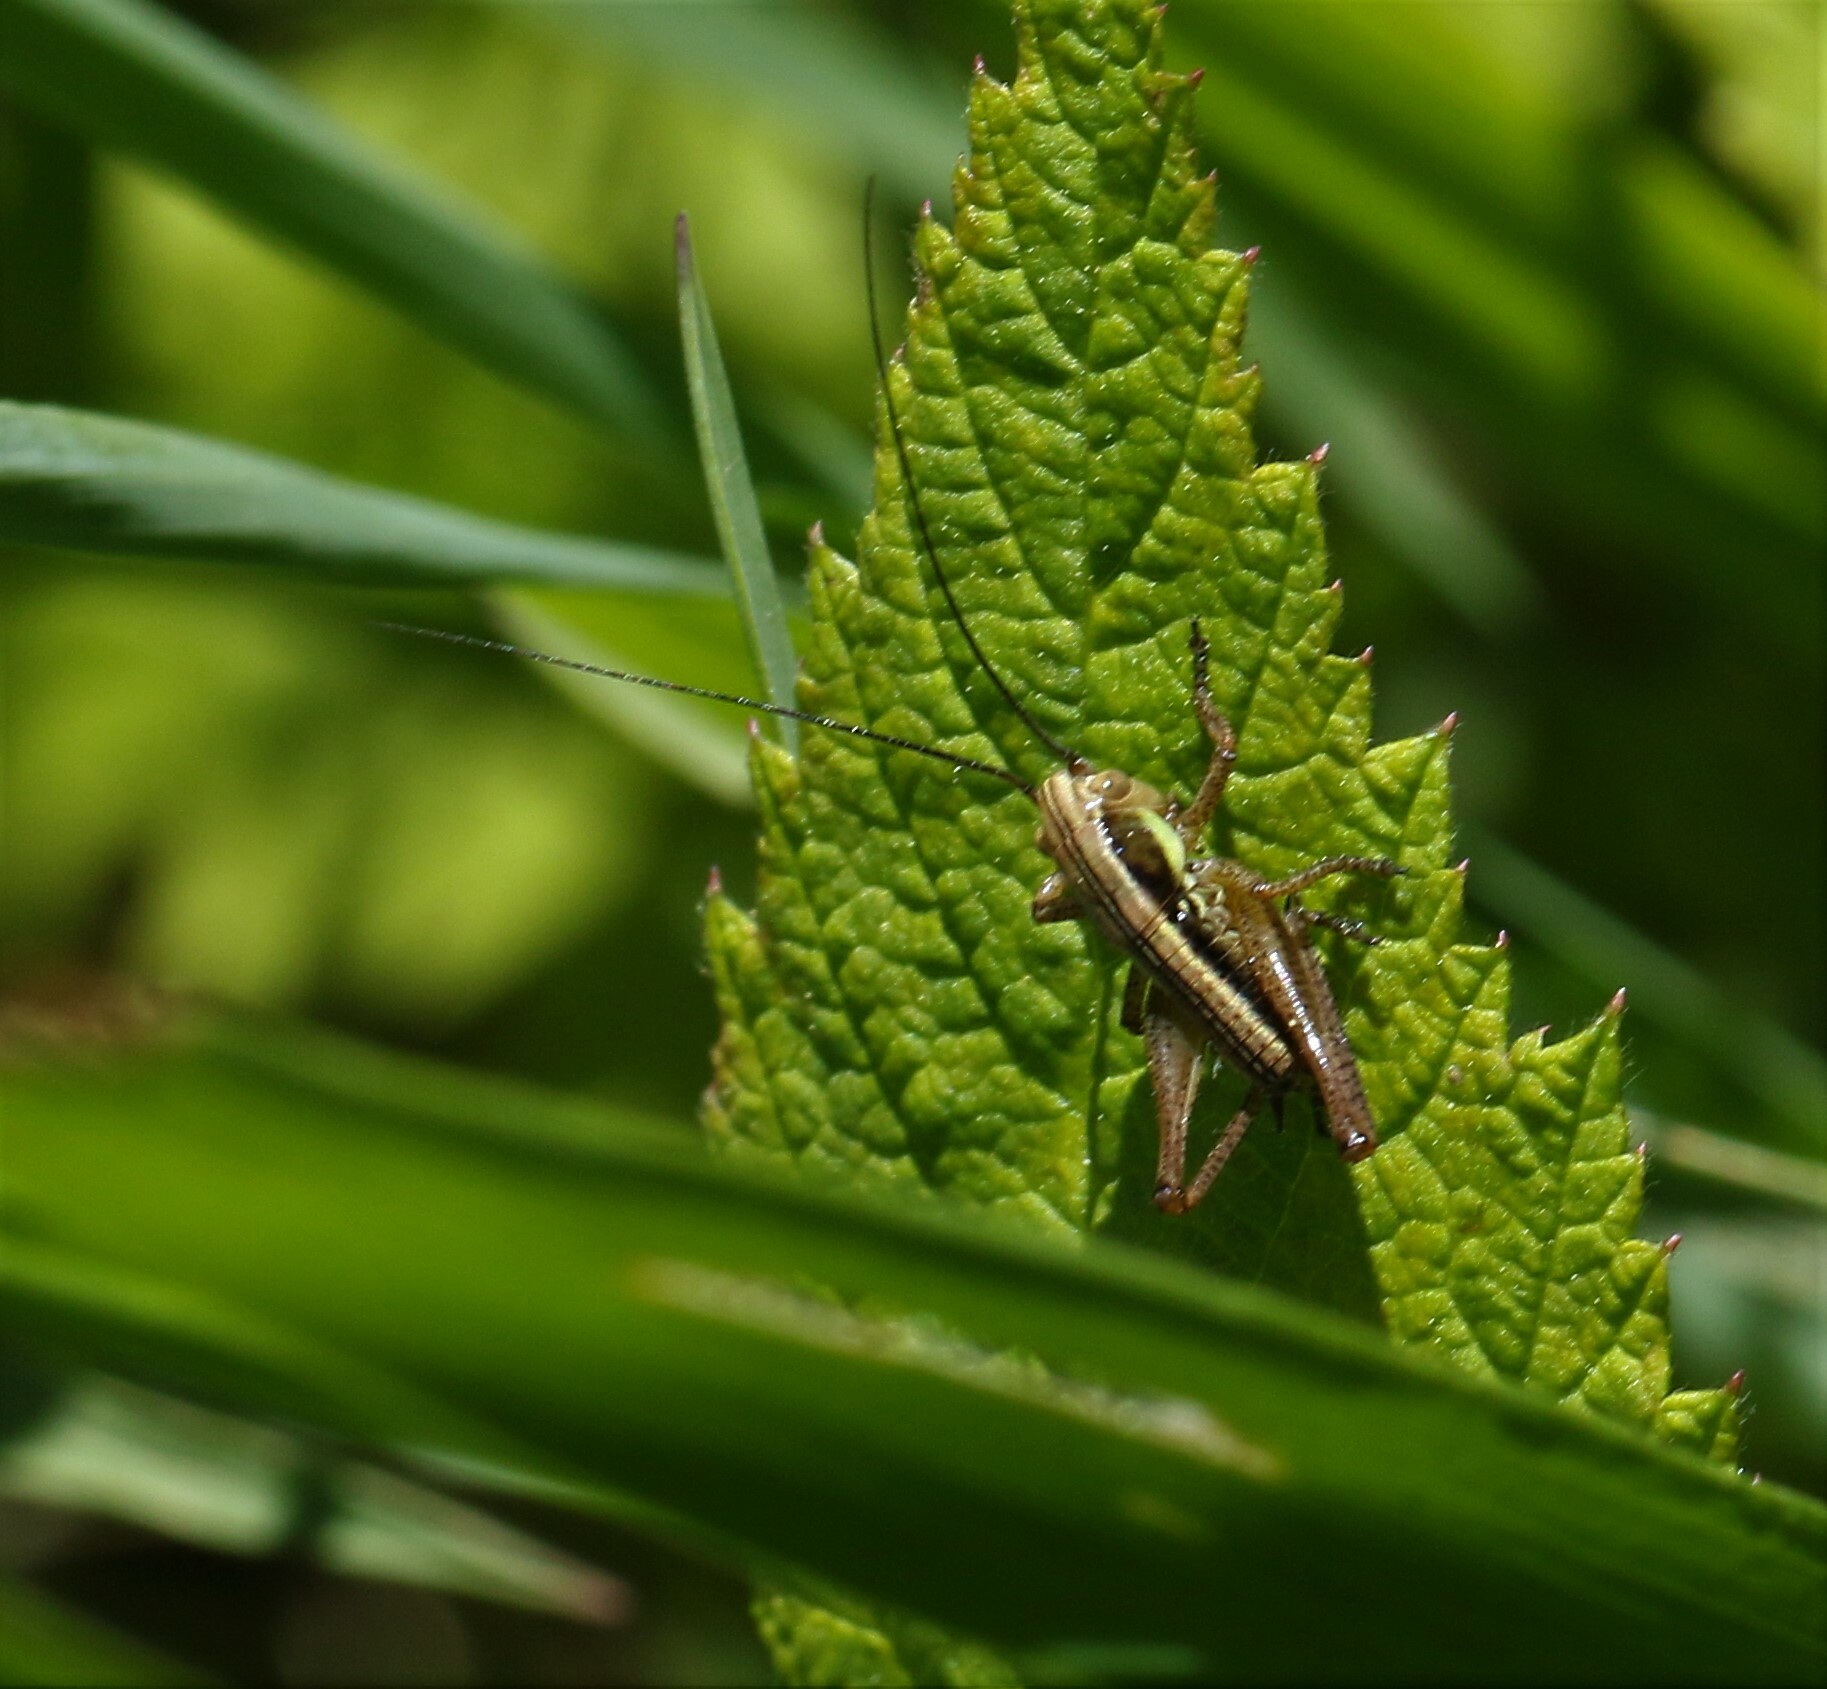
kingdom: Animalia
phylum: Arthropoda
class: Insecta
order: Orthoptera
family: Tettigoniidae
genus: Roeseliana
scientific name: Roeseliana roeselii
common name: Roesel's bush cricket
